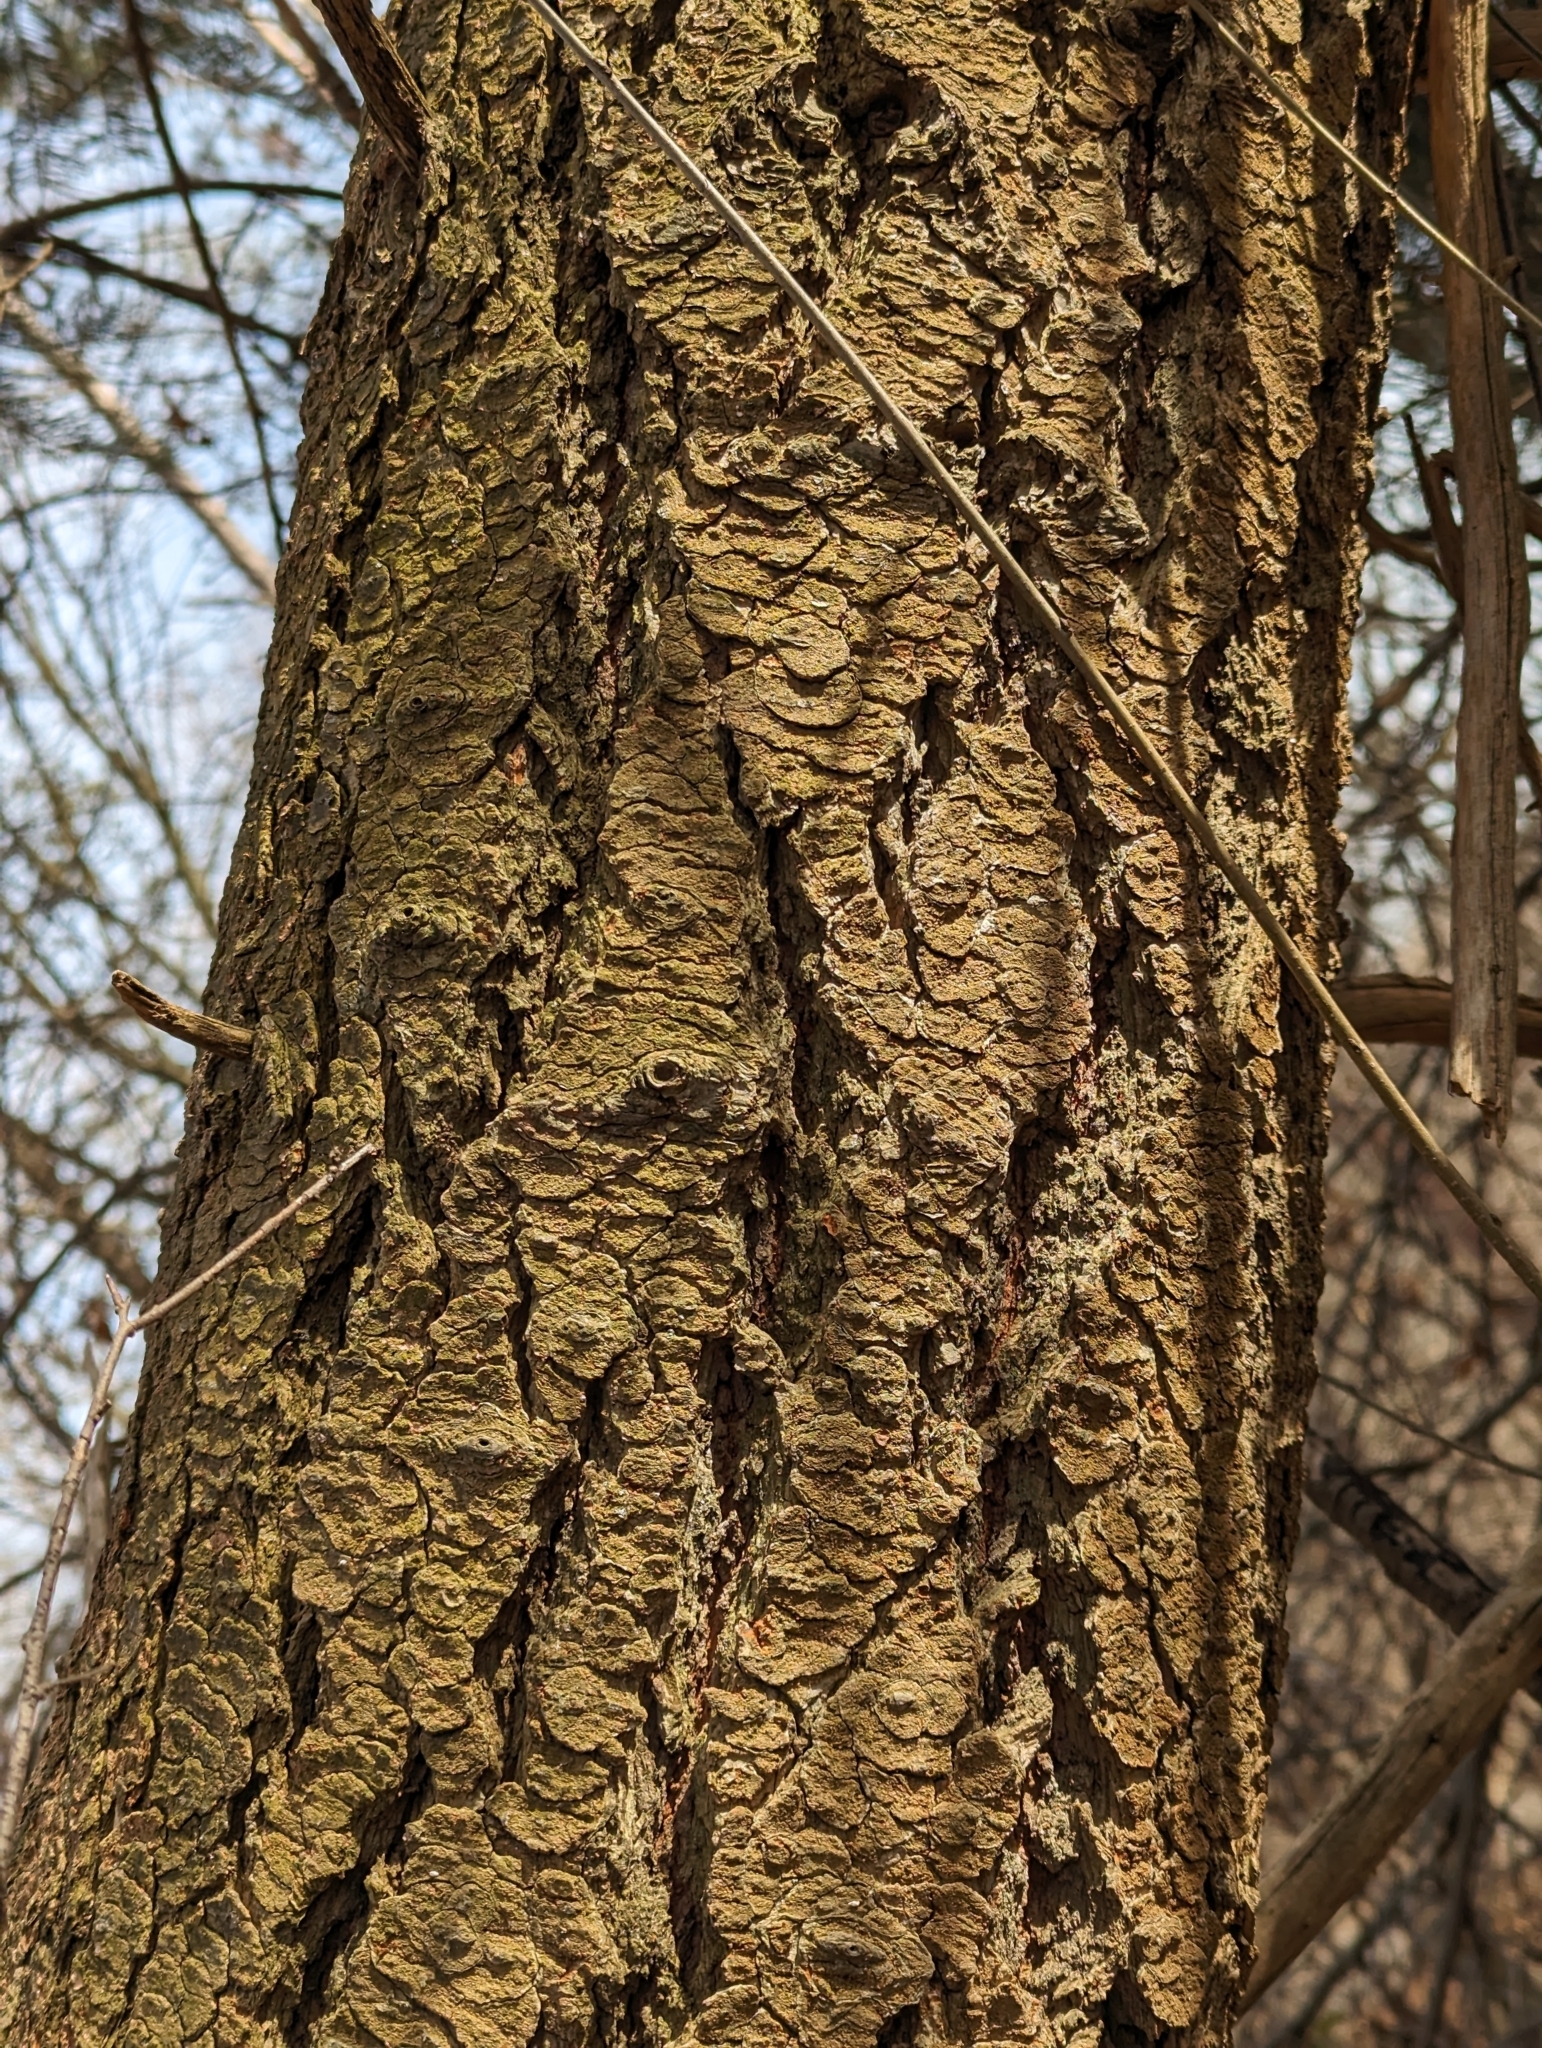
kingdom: Plantae
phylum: Tracheophyta
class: Pinopsida
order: Pinales
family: Pinaceae
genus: Abies
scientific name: Abies concolor
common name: Colorado fir
